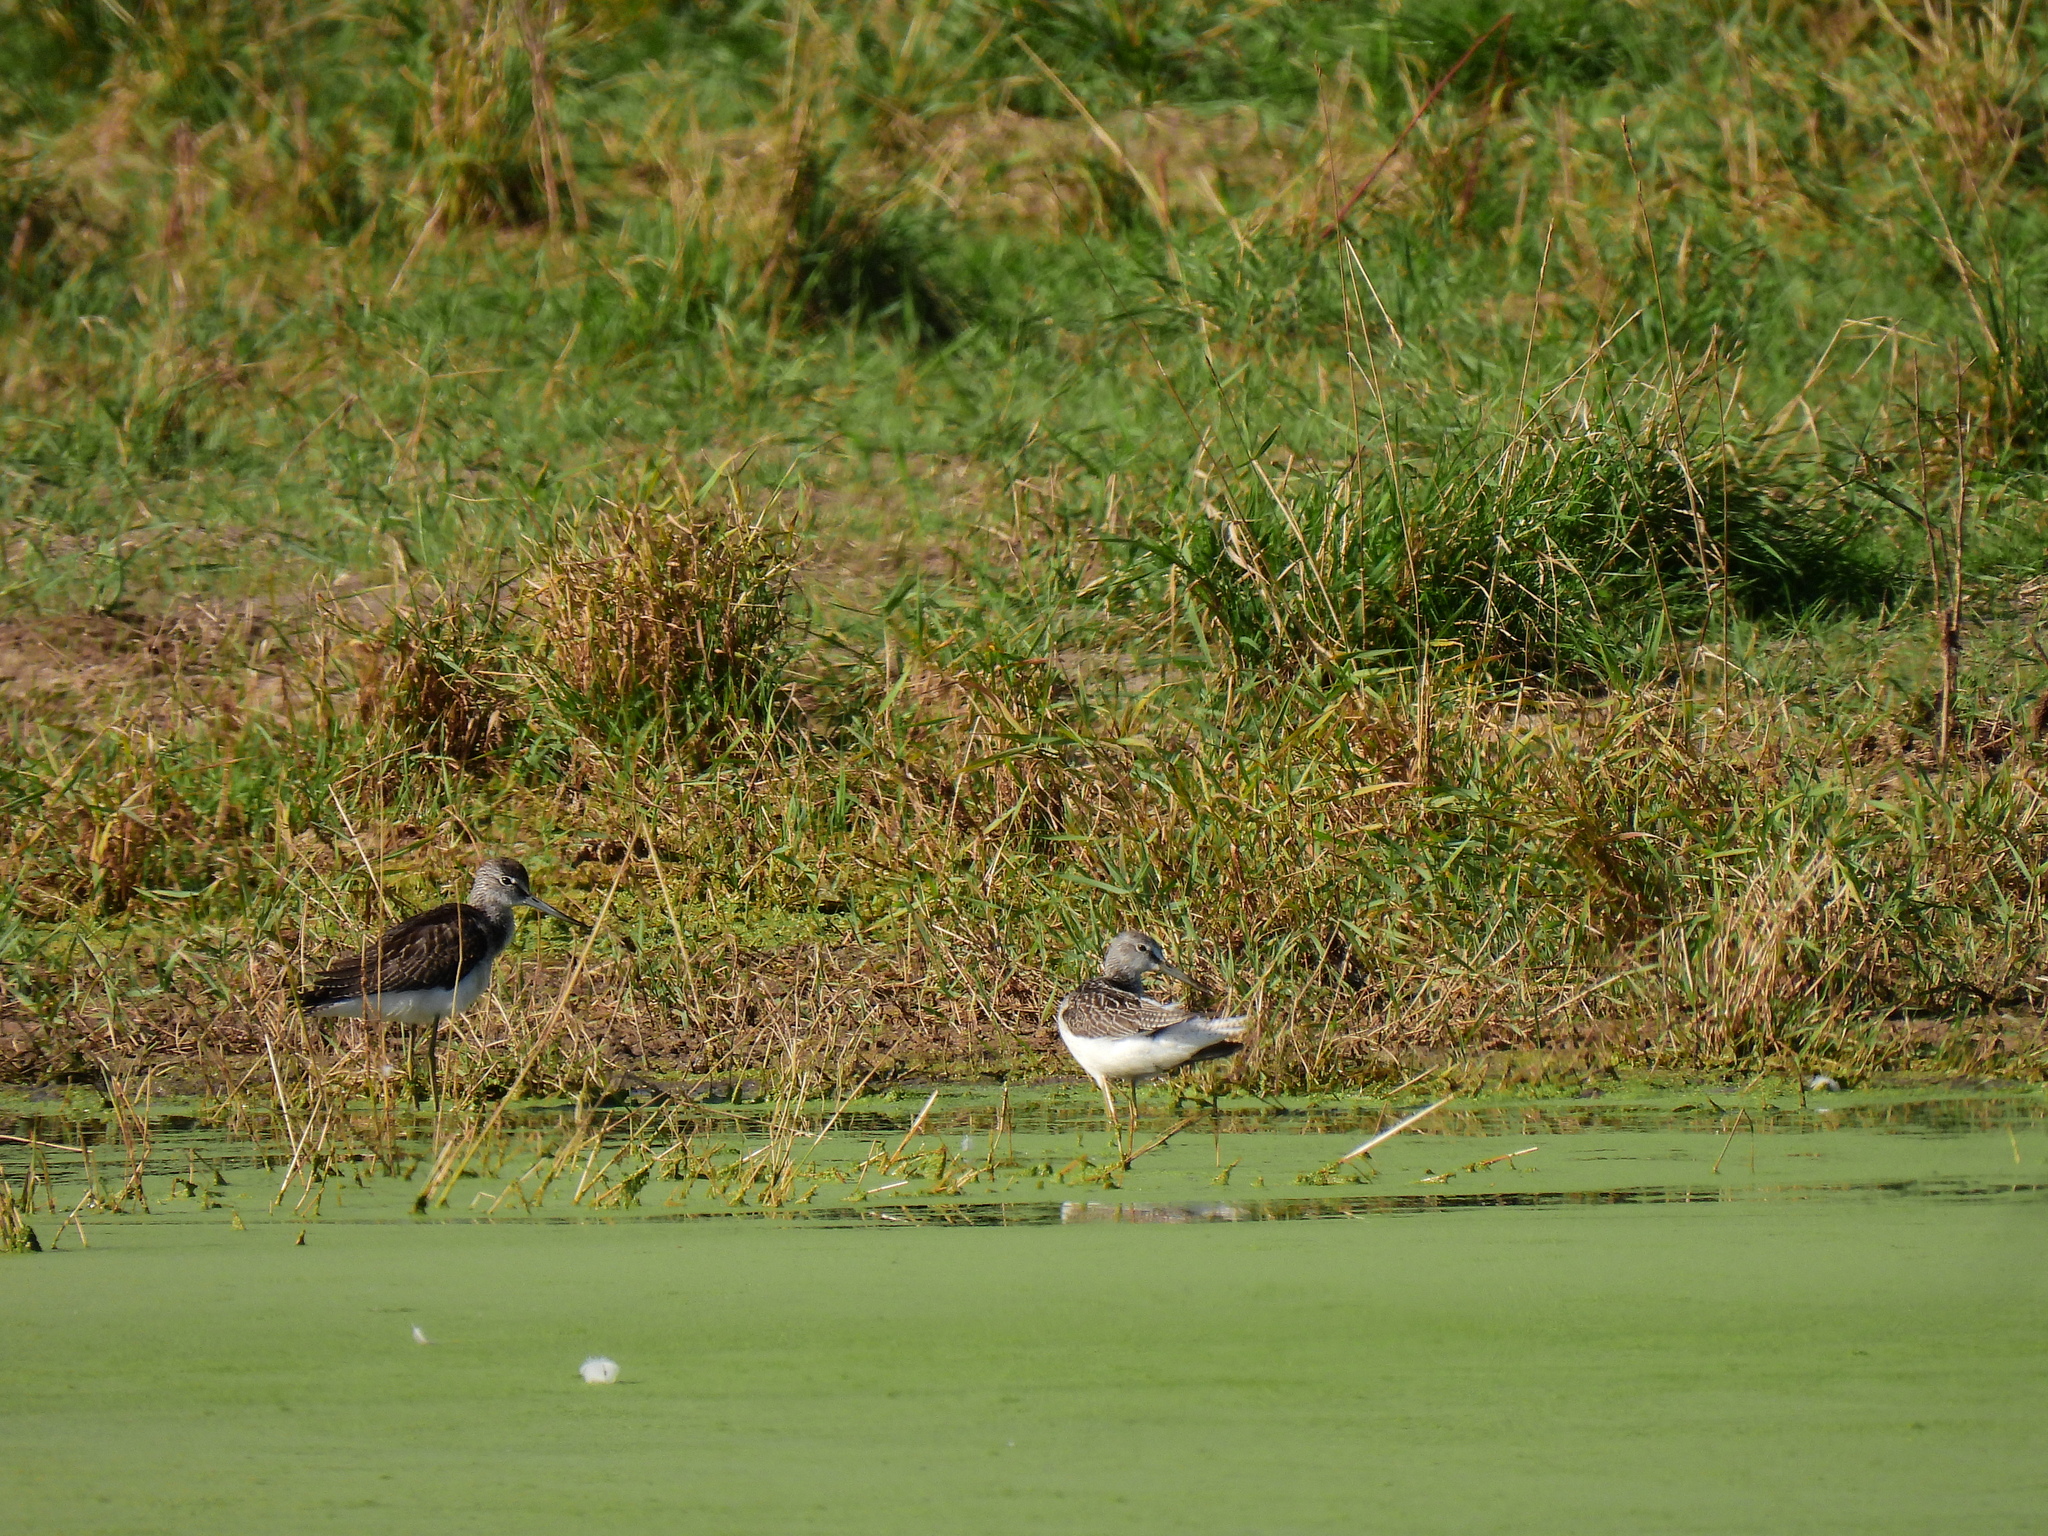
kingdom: Animalia
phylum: Chordata
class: Aves
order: Charadriiformes
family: Scolopacidae
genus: Tringa
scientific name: Tringa nebularia
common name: Common greenshank
